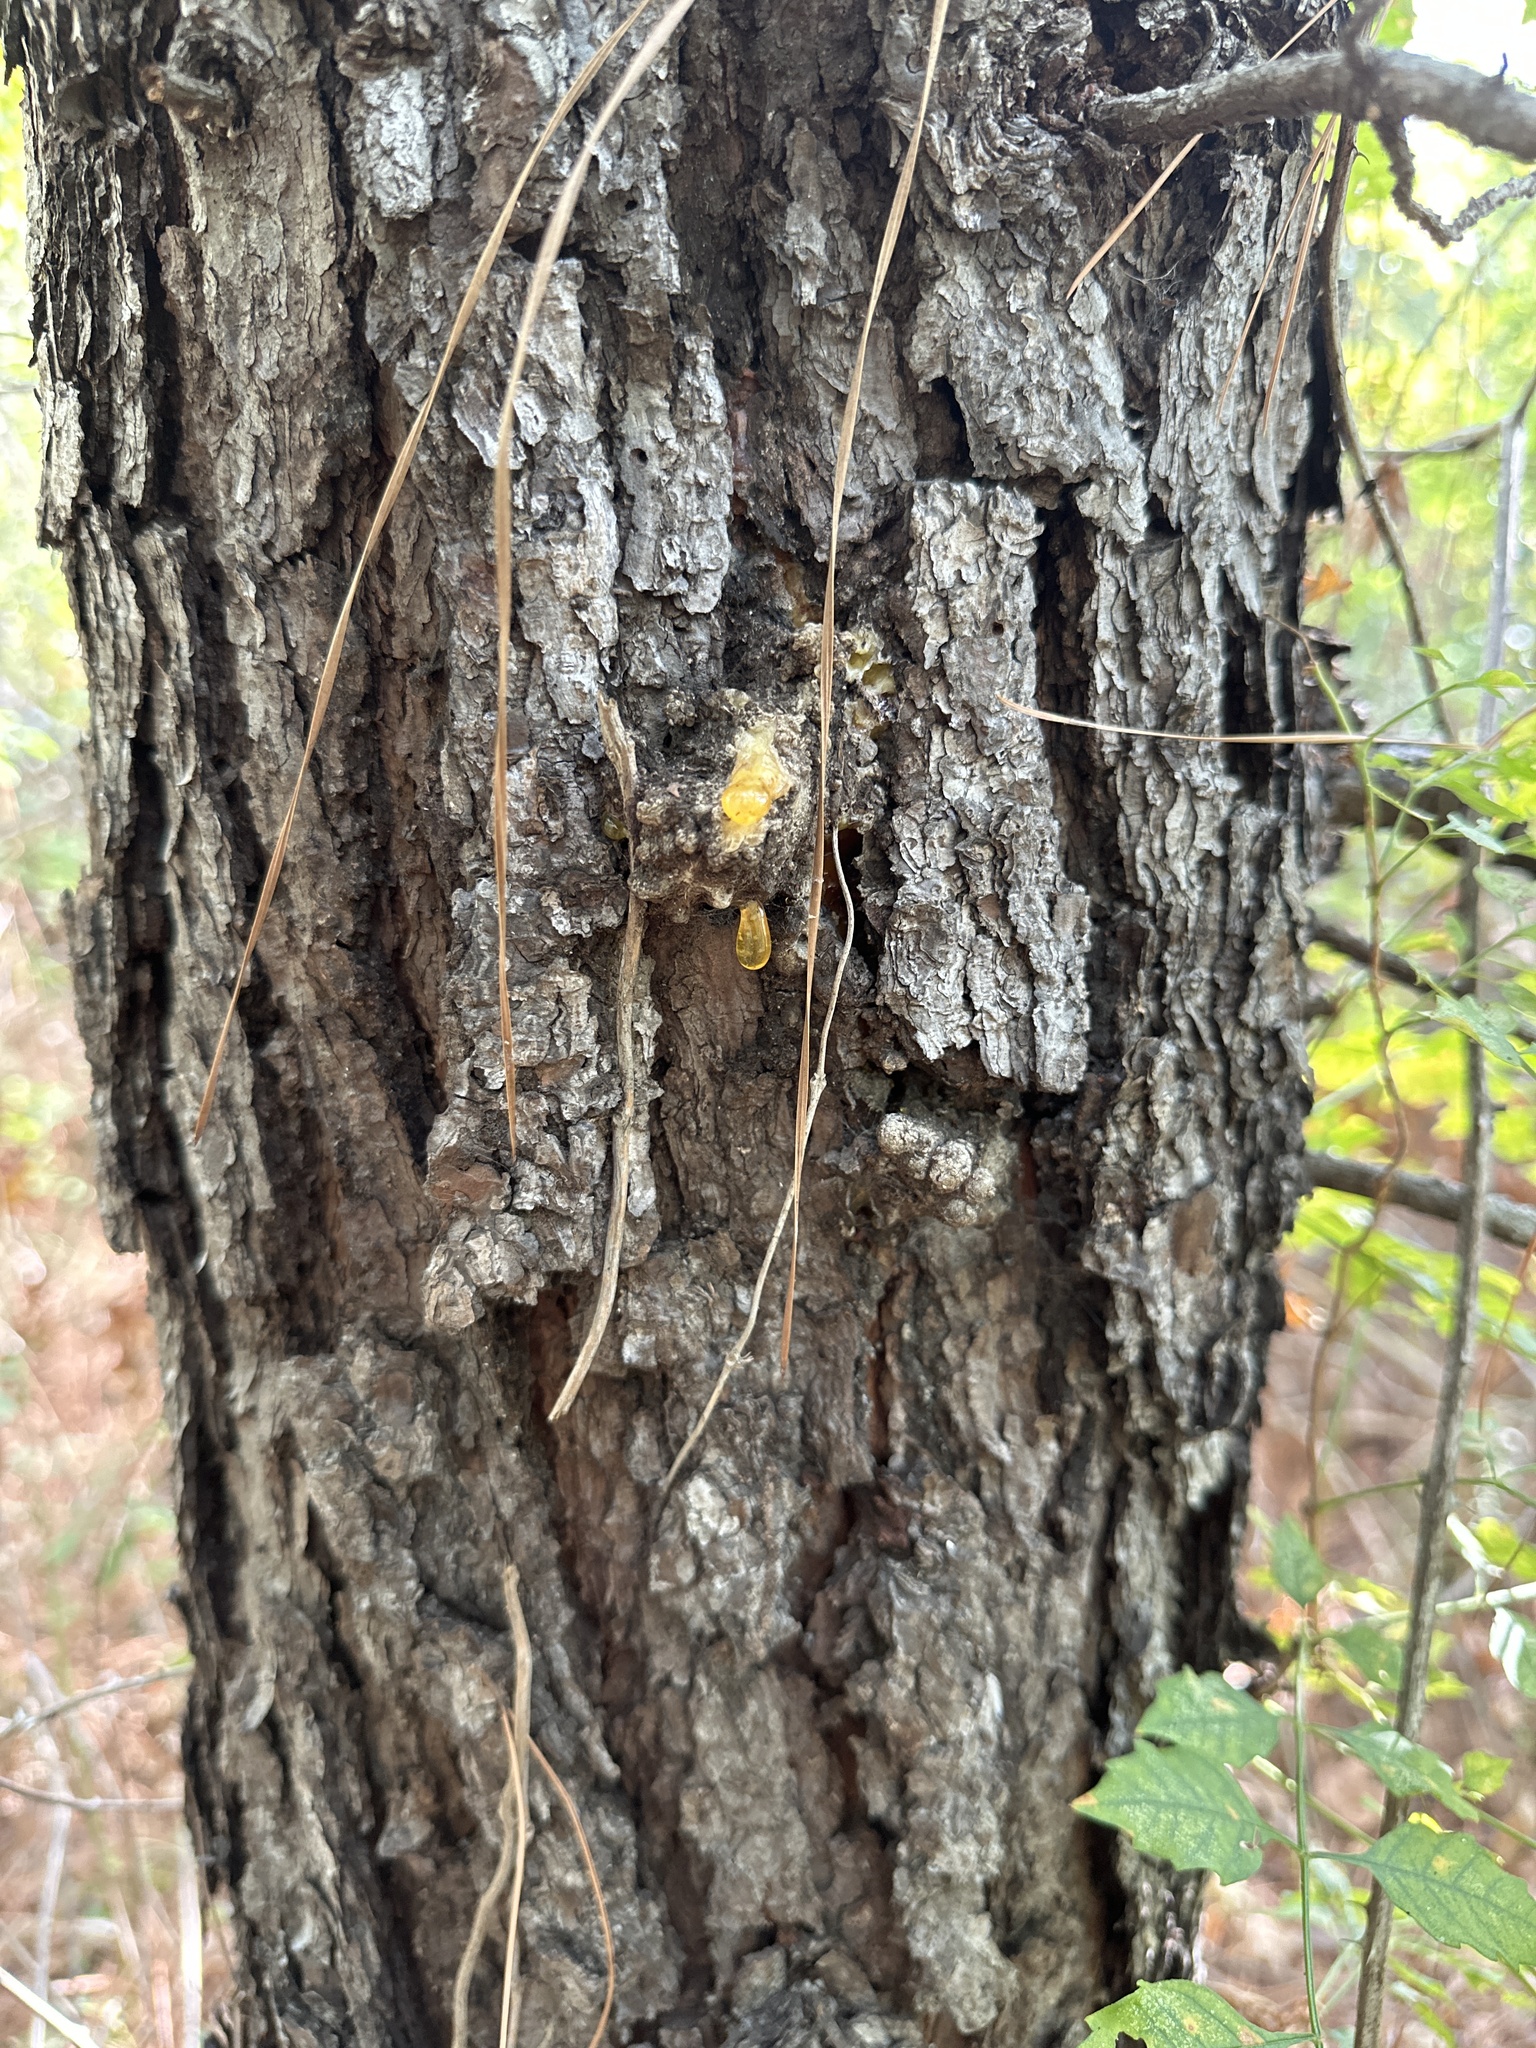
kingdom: Plantae
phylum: Tracheophyta
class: Pinopsida
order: Pinales
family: Pinaceae
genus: Pinus
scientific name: Pinus taeda
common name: Loblolly pine
